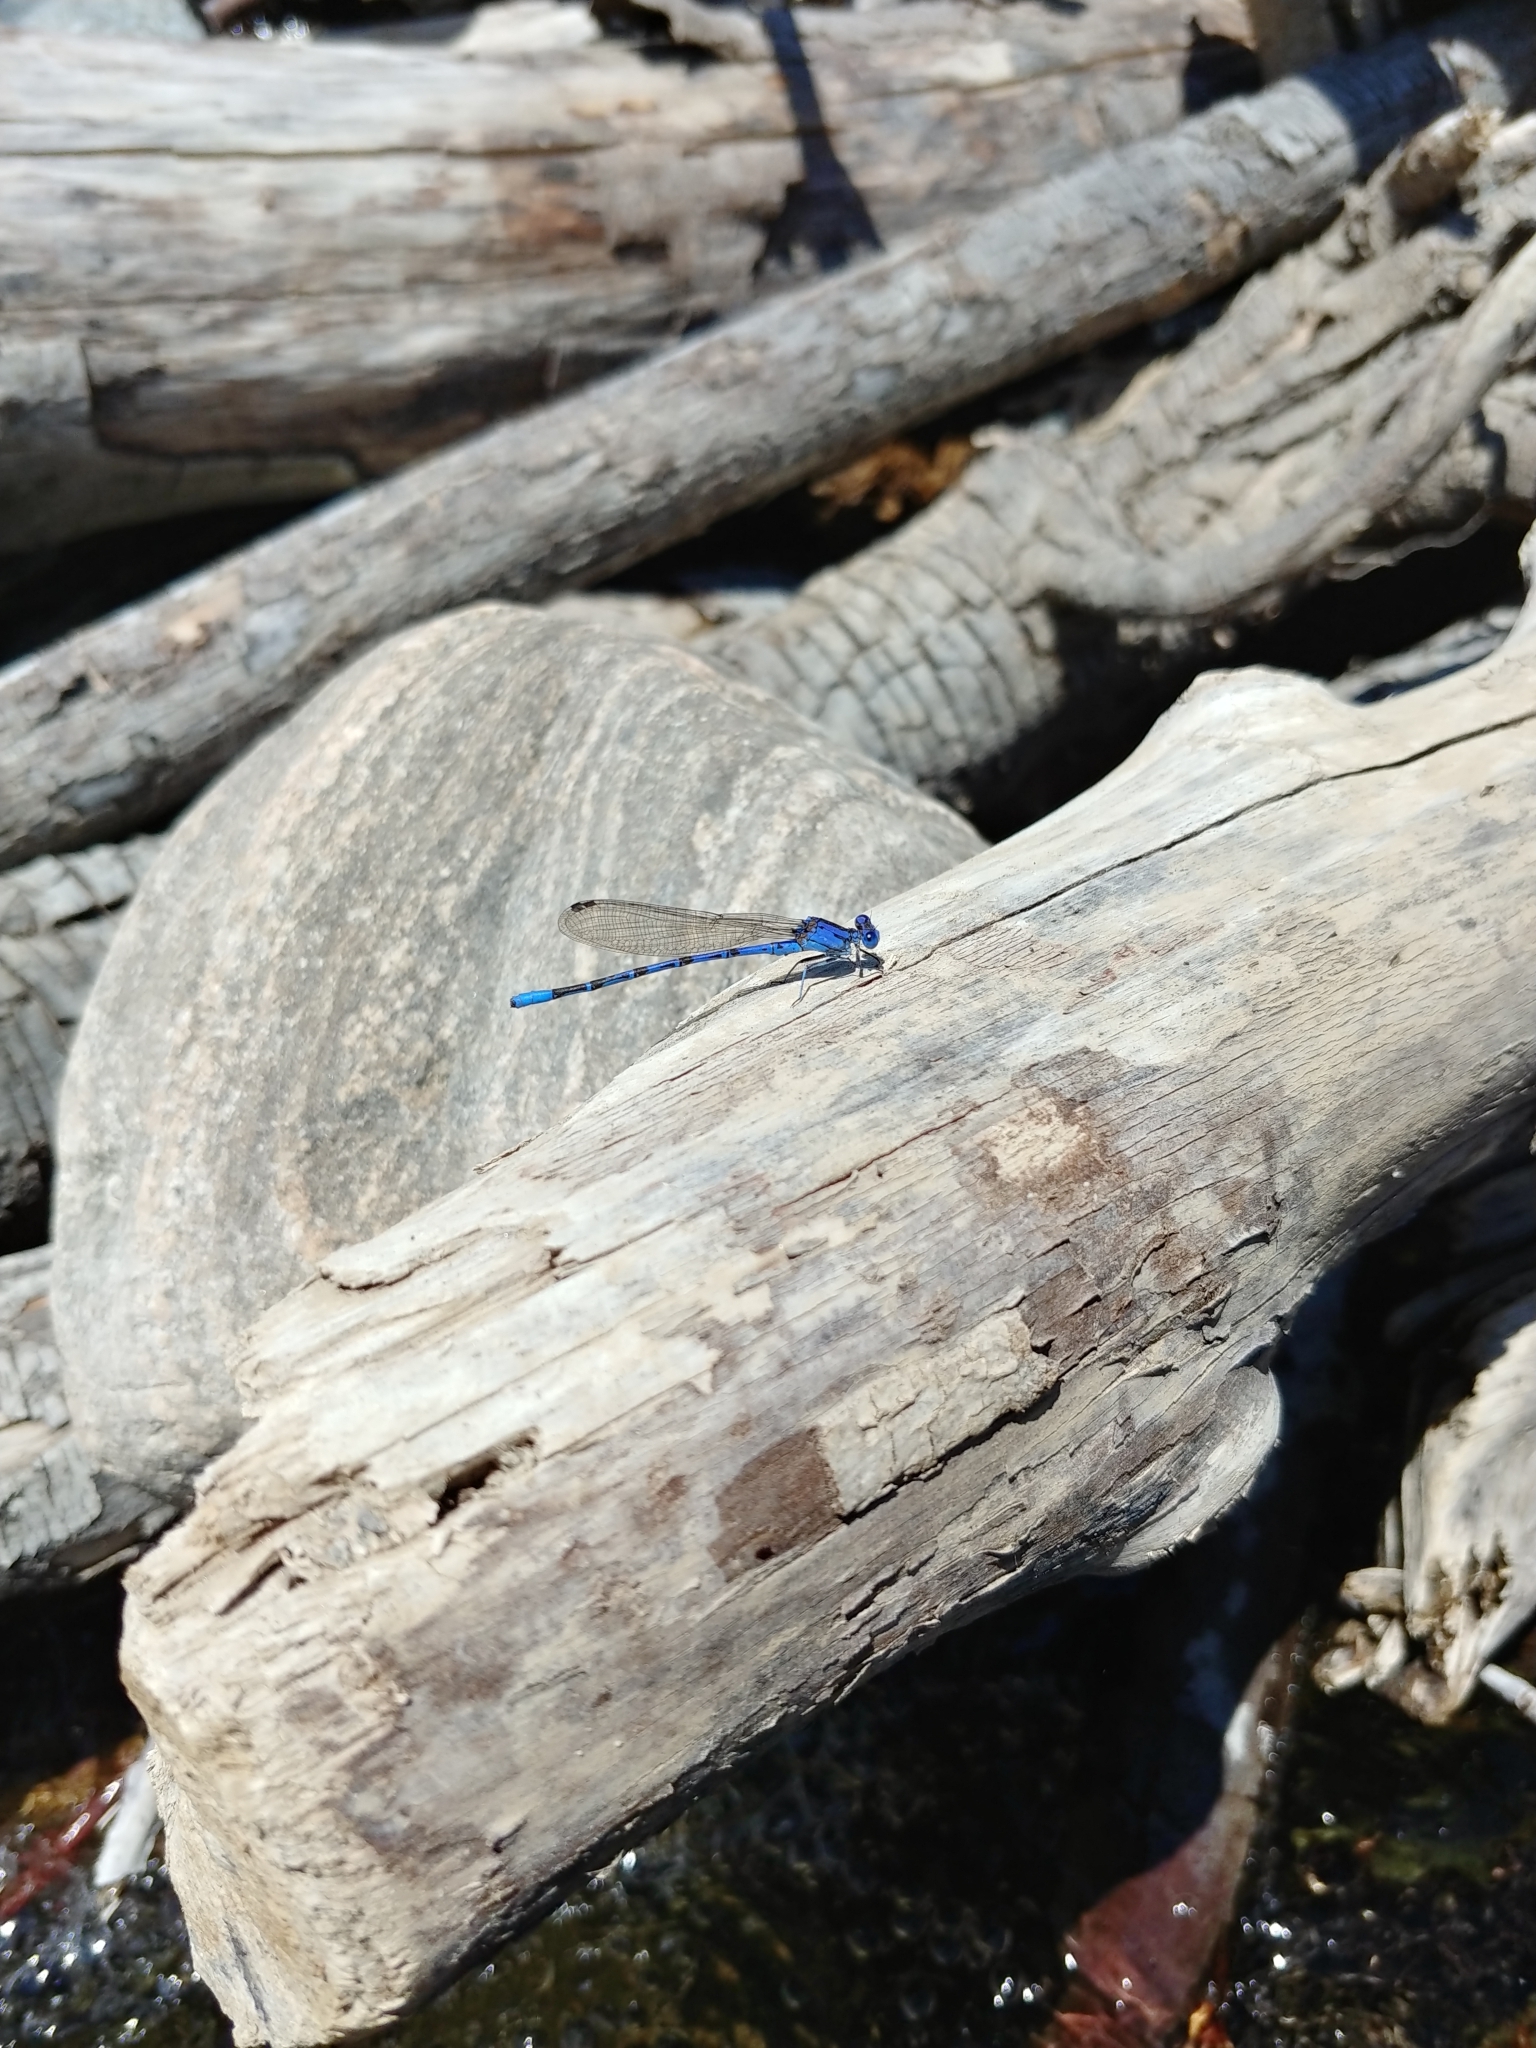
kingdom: Animalia
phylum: Arthropoda
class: Insecta
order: Odonata
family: Coenagrionidae
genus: Argia
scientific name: Argia vivida
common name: Vivid dancer
